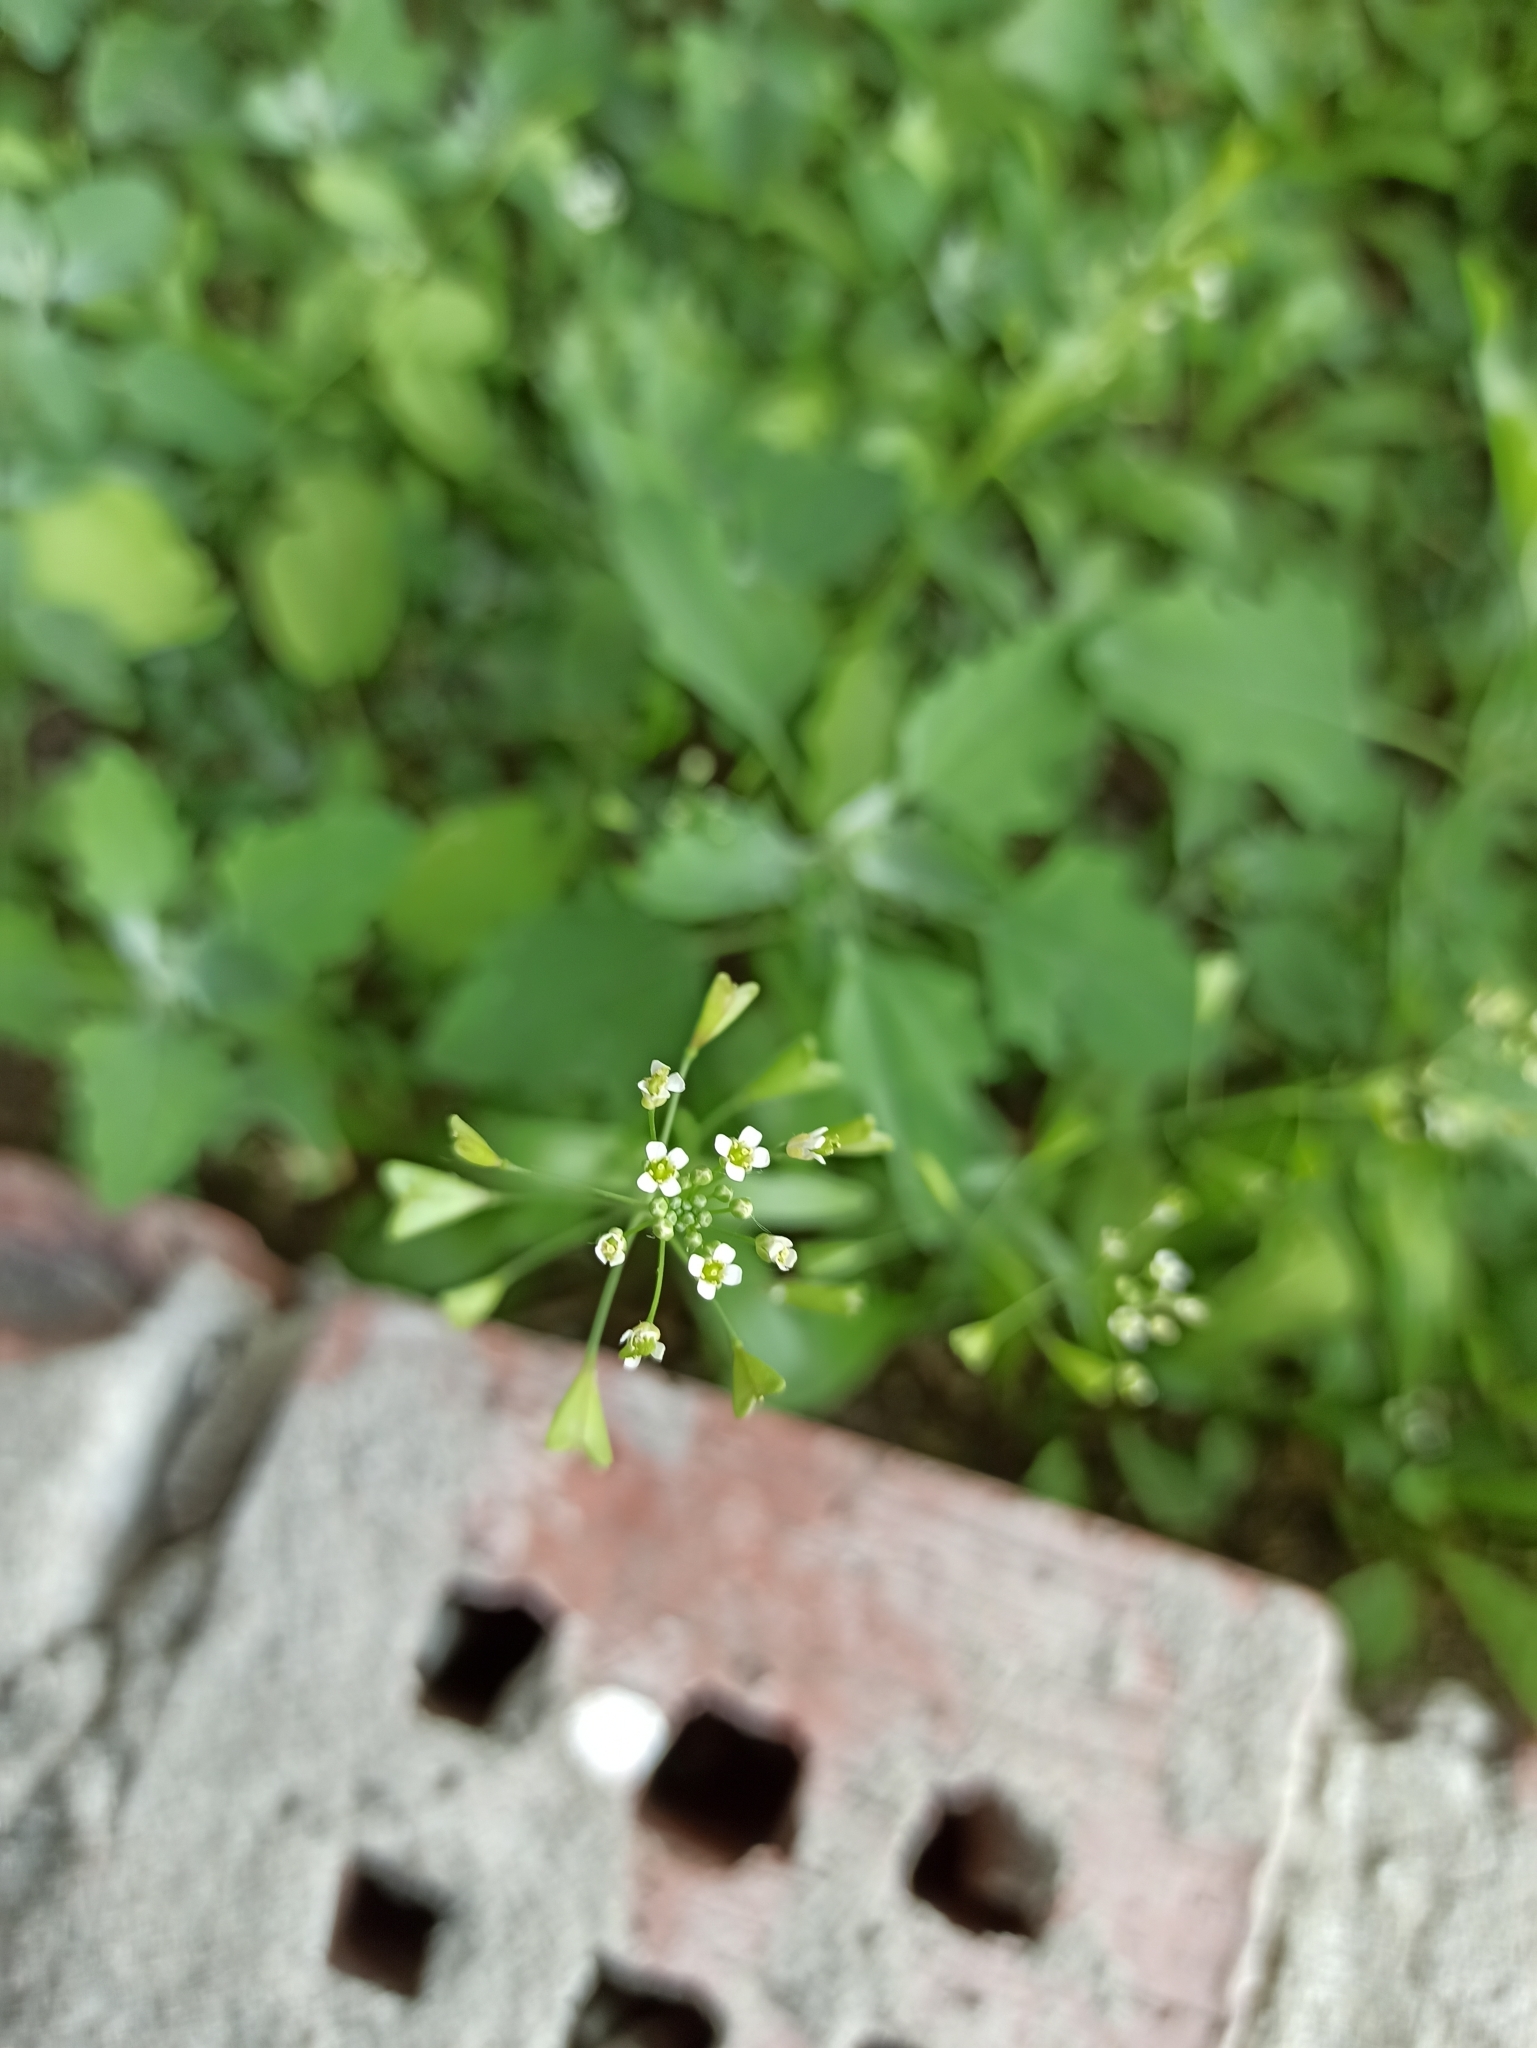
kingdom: Plantae
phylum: Tracheophyta
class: Magnoliopsida
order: Brassicales
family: Brassicaceae
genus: Capsella
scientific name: Capsella bursa-pastoris
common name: Shepherd's purse
